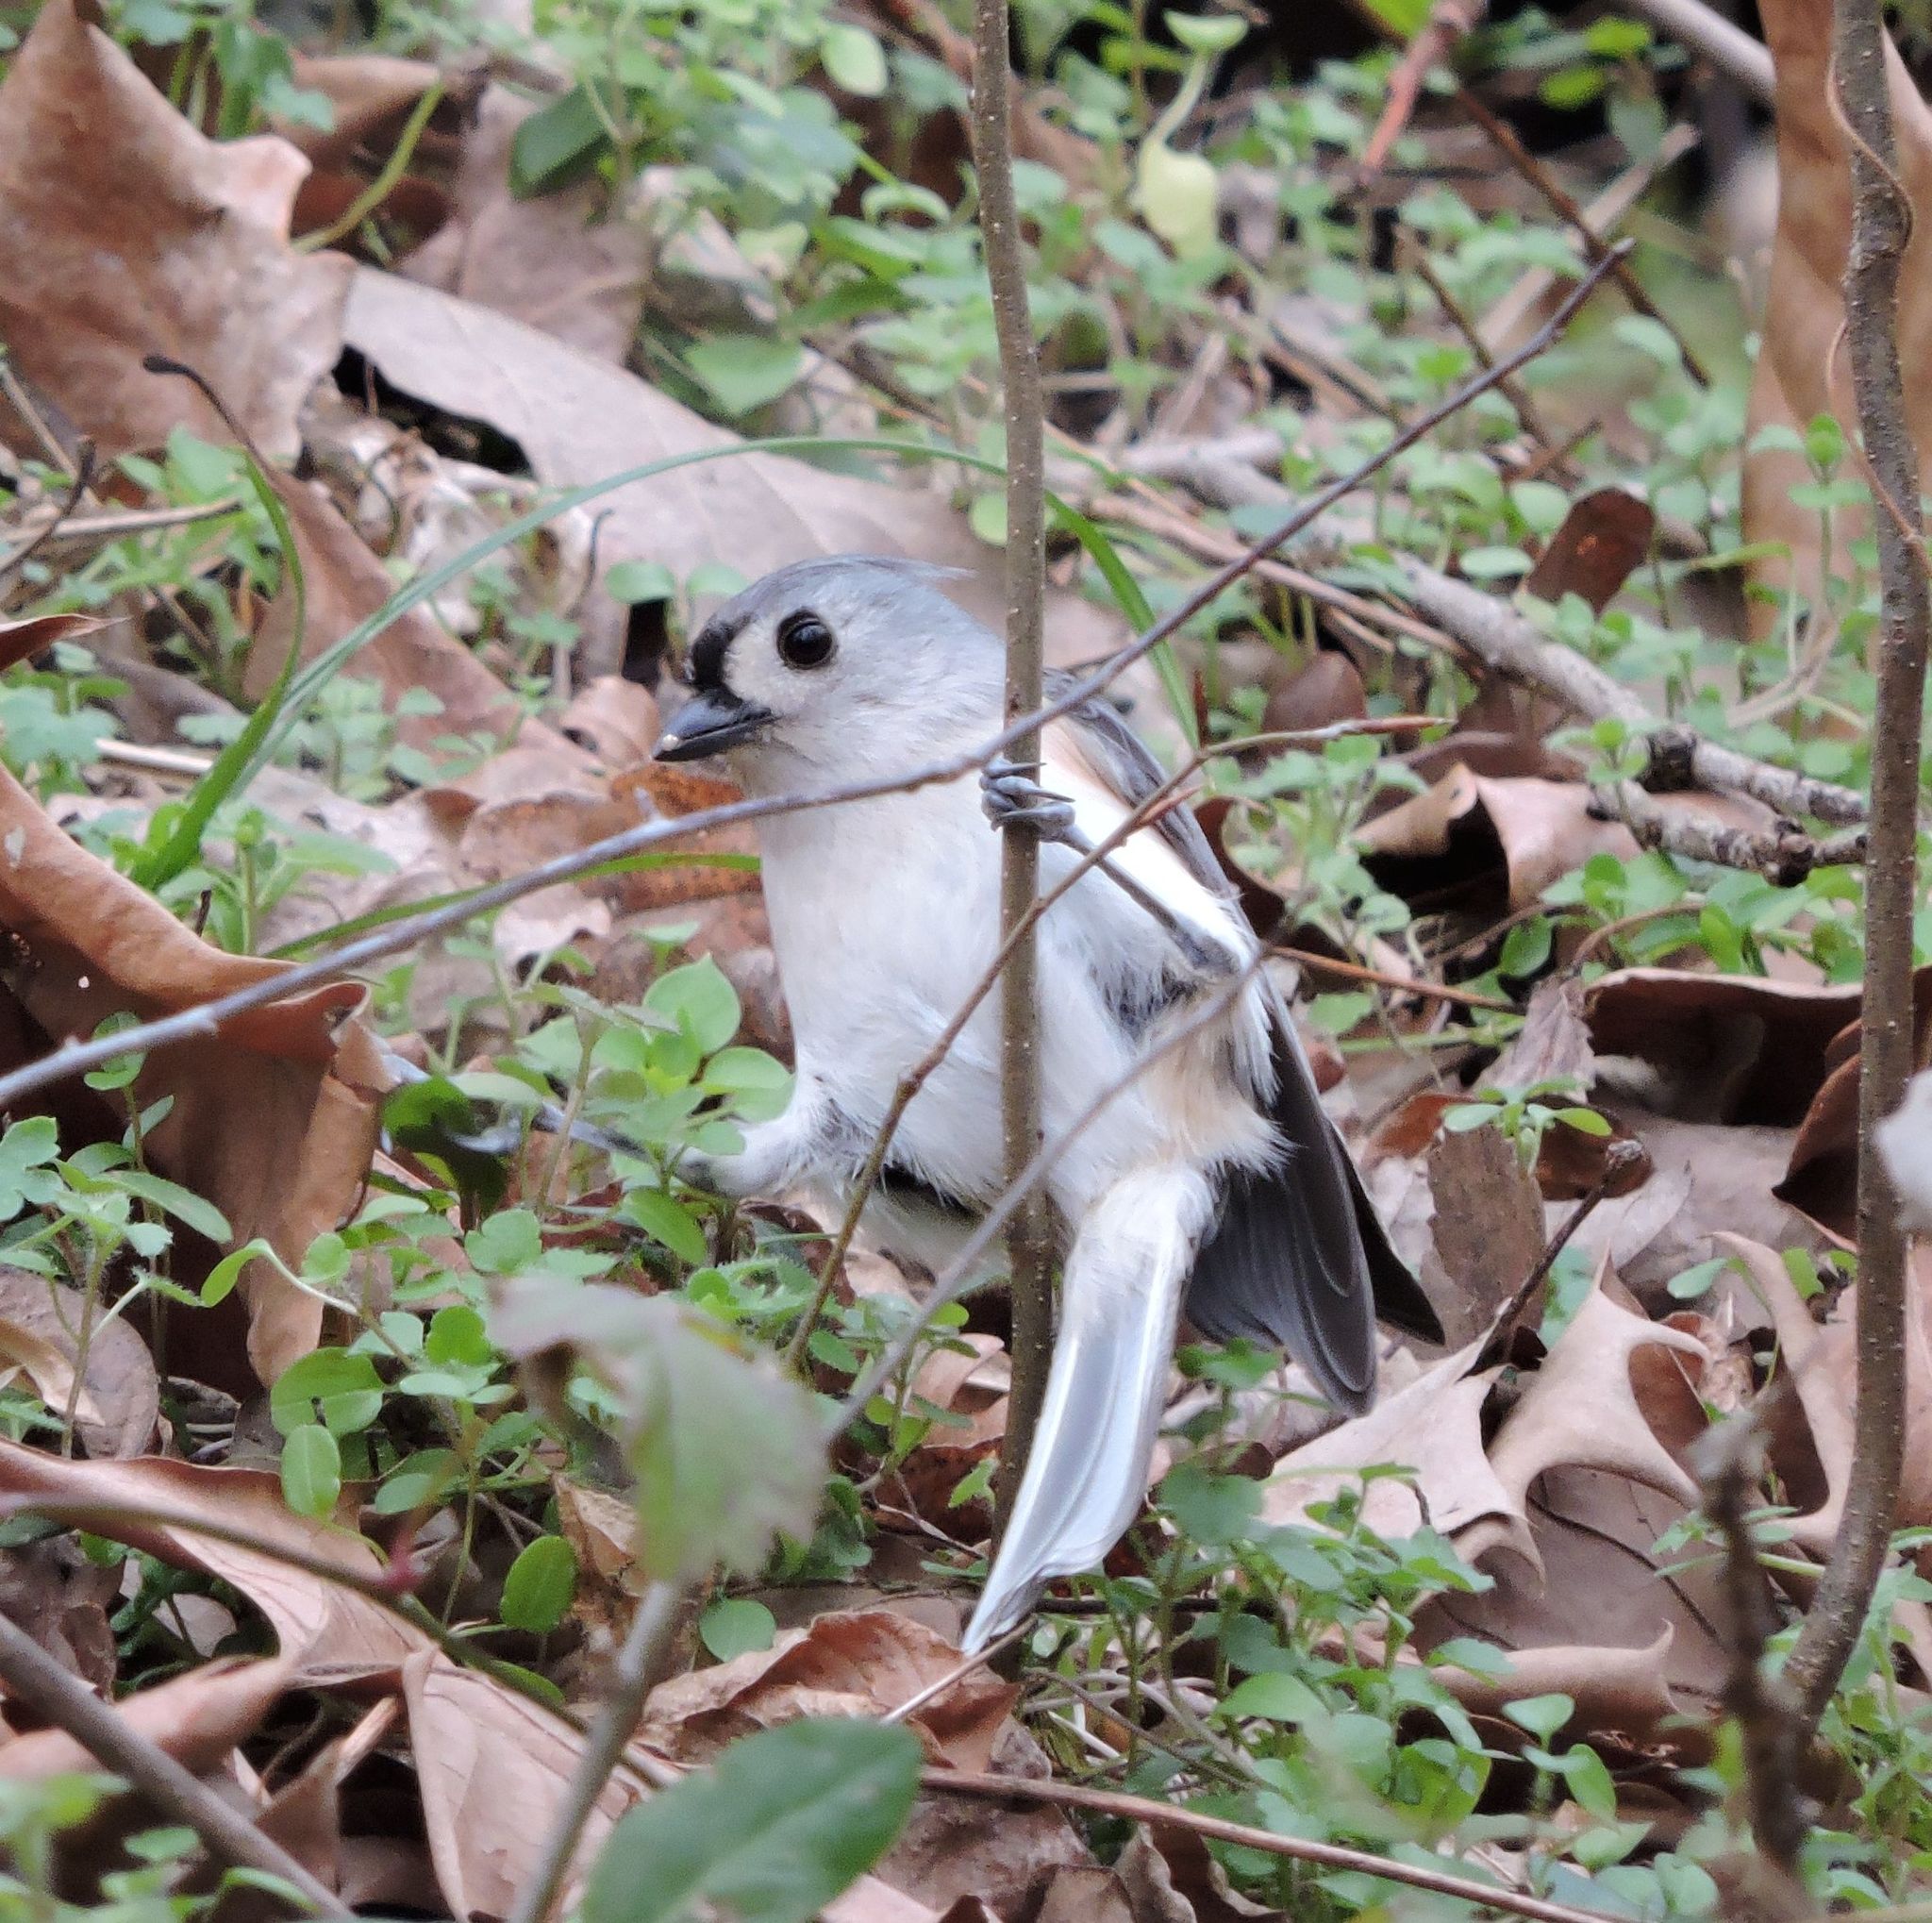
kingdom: Animalia
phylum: Chordata
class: Aves
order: Passeriformes
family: Paridae
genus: Baeolophus
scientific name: Baeolophus bicolor
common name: Tufted titmouse
